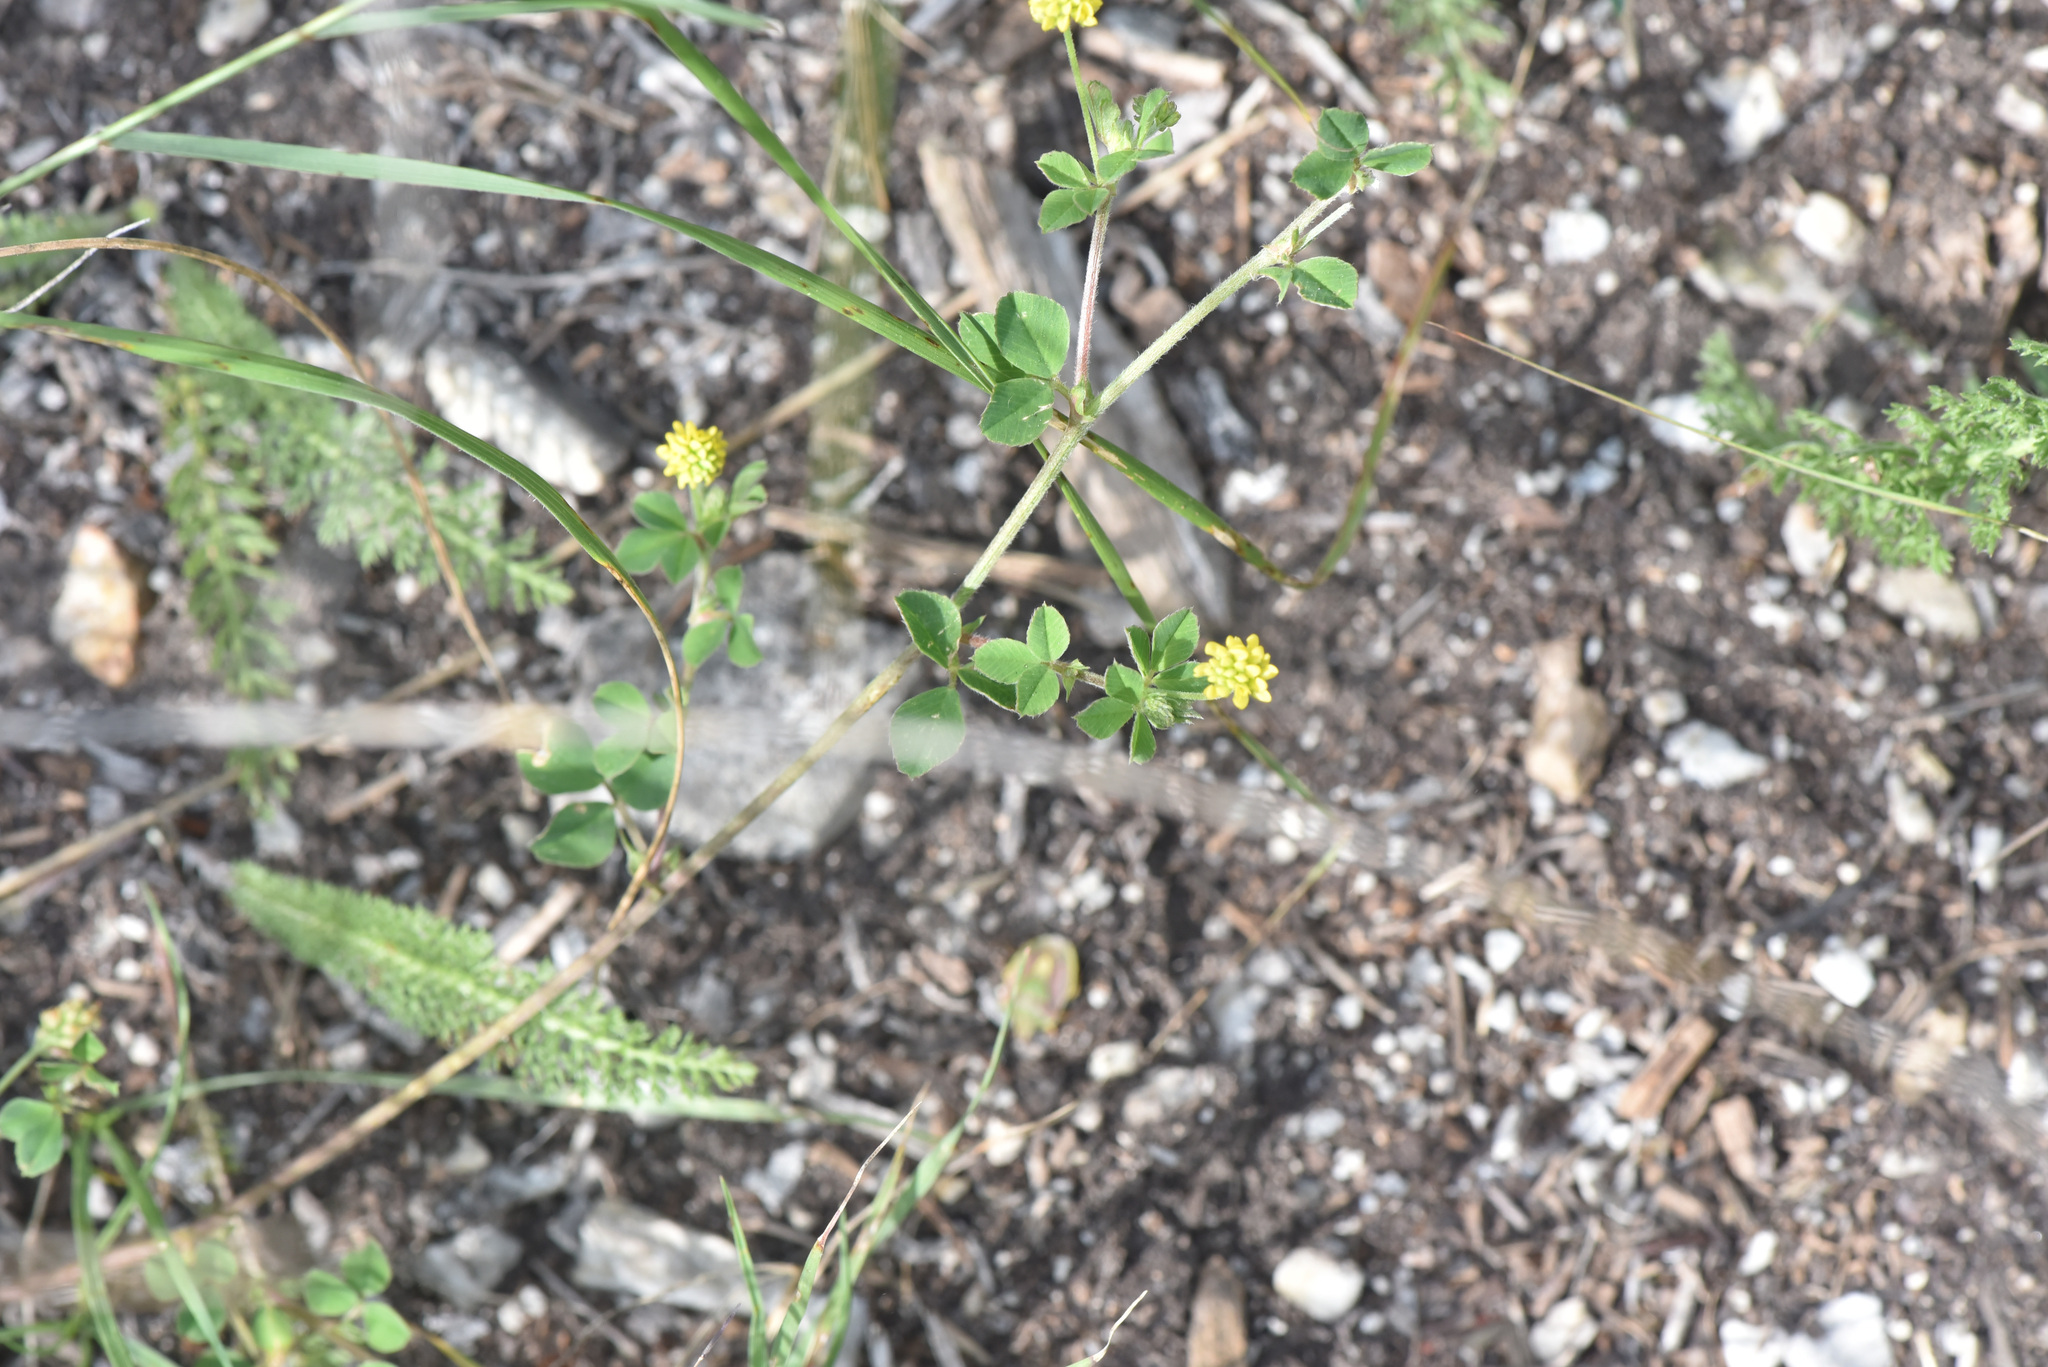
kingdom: Plantae
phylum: Tracheophyta
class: Magnoliopsida
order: Fabales
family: Fabaceae
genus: Medicago
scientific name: Medicago lupulina
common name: Black medick
